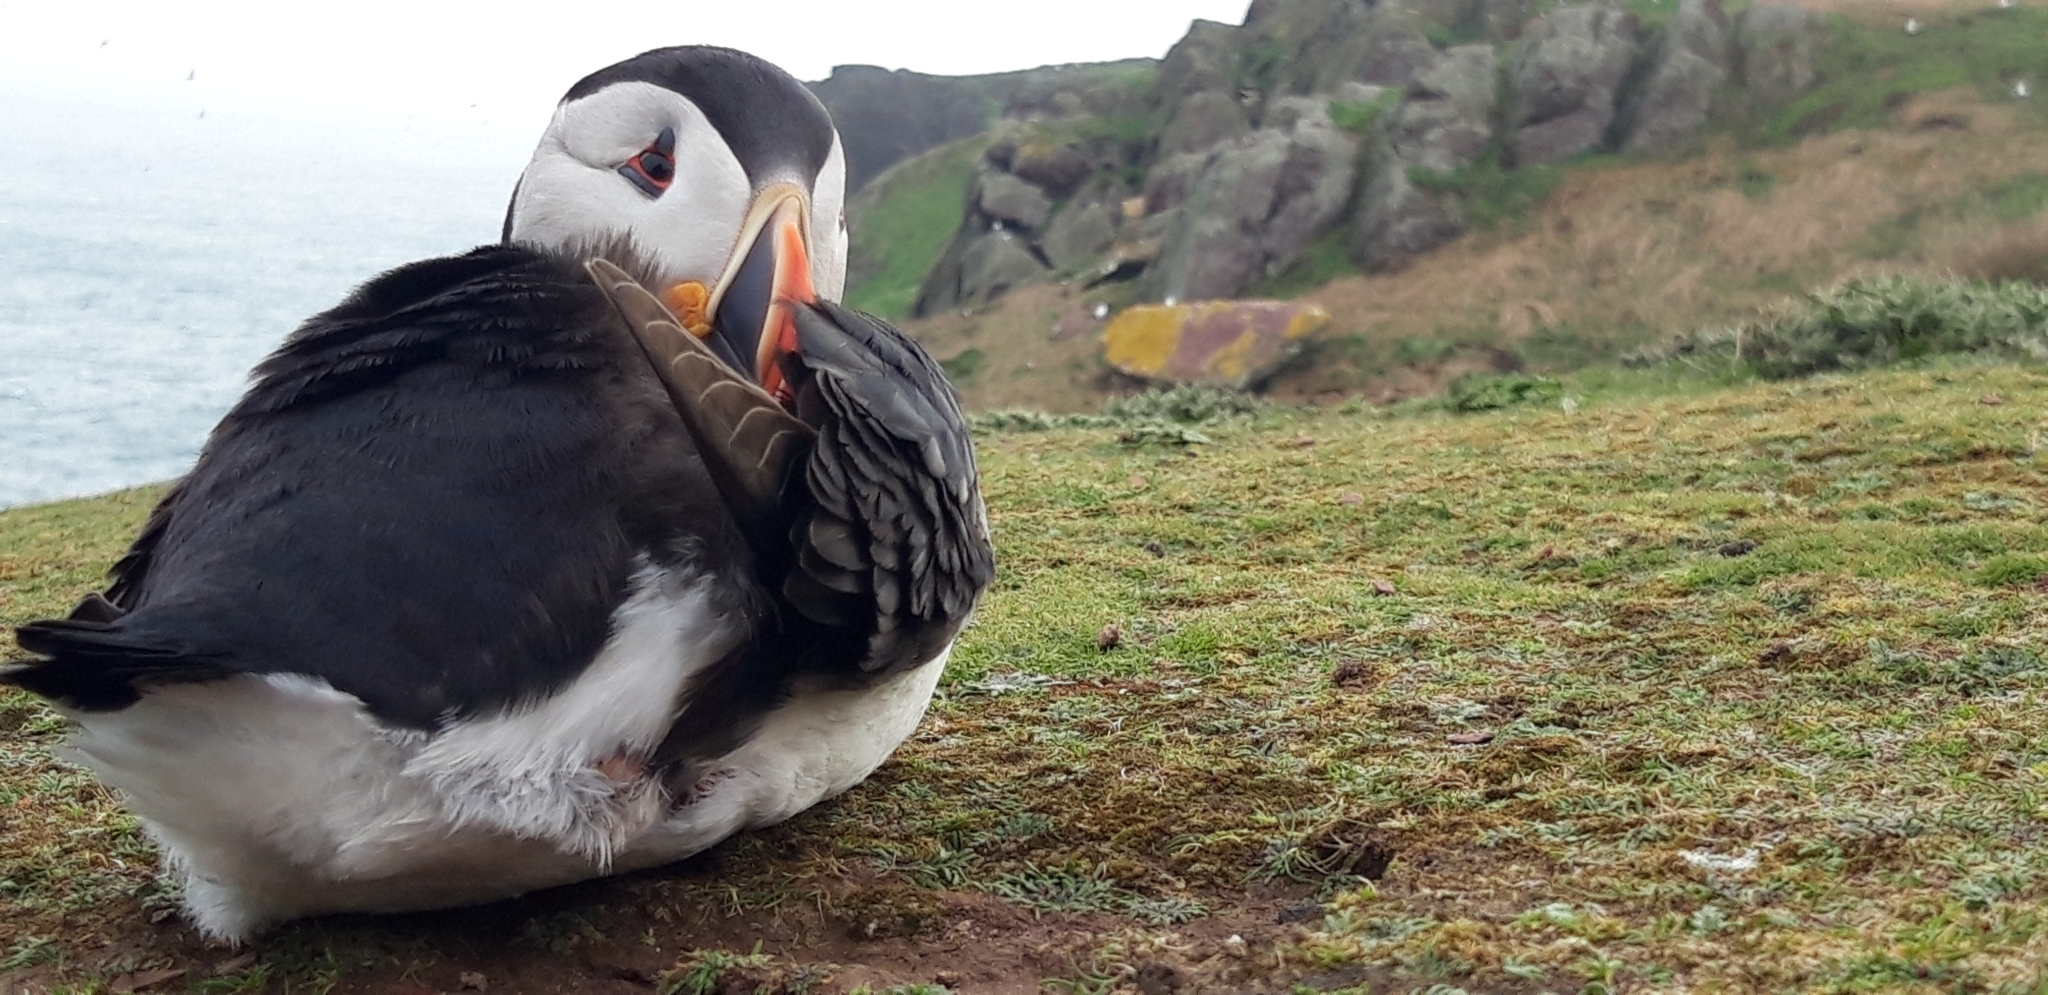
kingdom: Animalia
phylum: Chordata
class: Aves
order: Charadriiformes
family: Alcidae
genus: Fratercula
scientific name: Fratercula arctica
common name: Atlantic puffin
